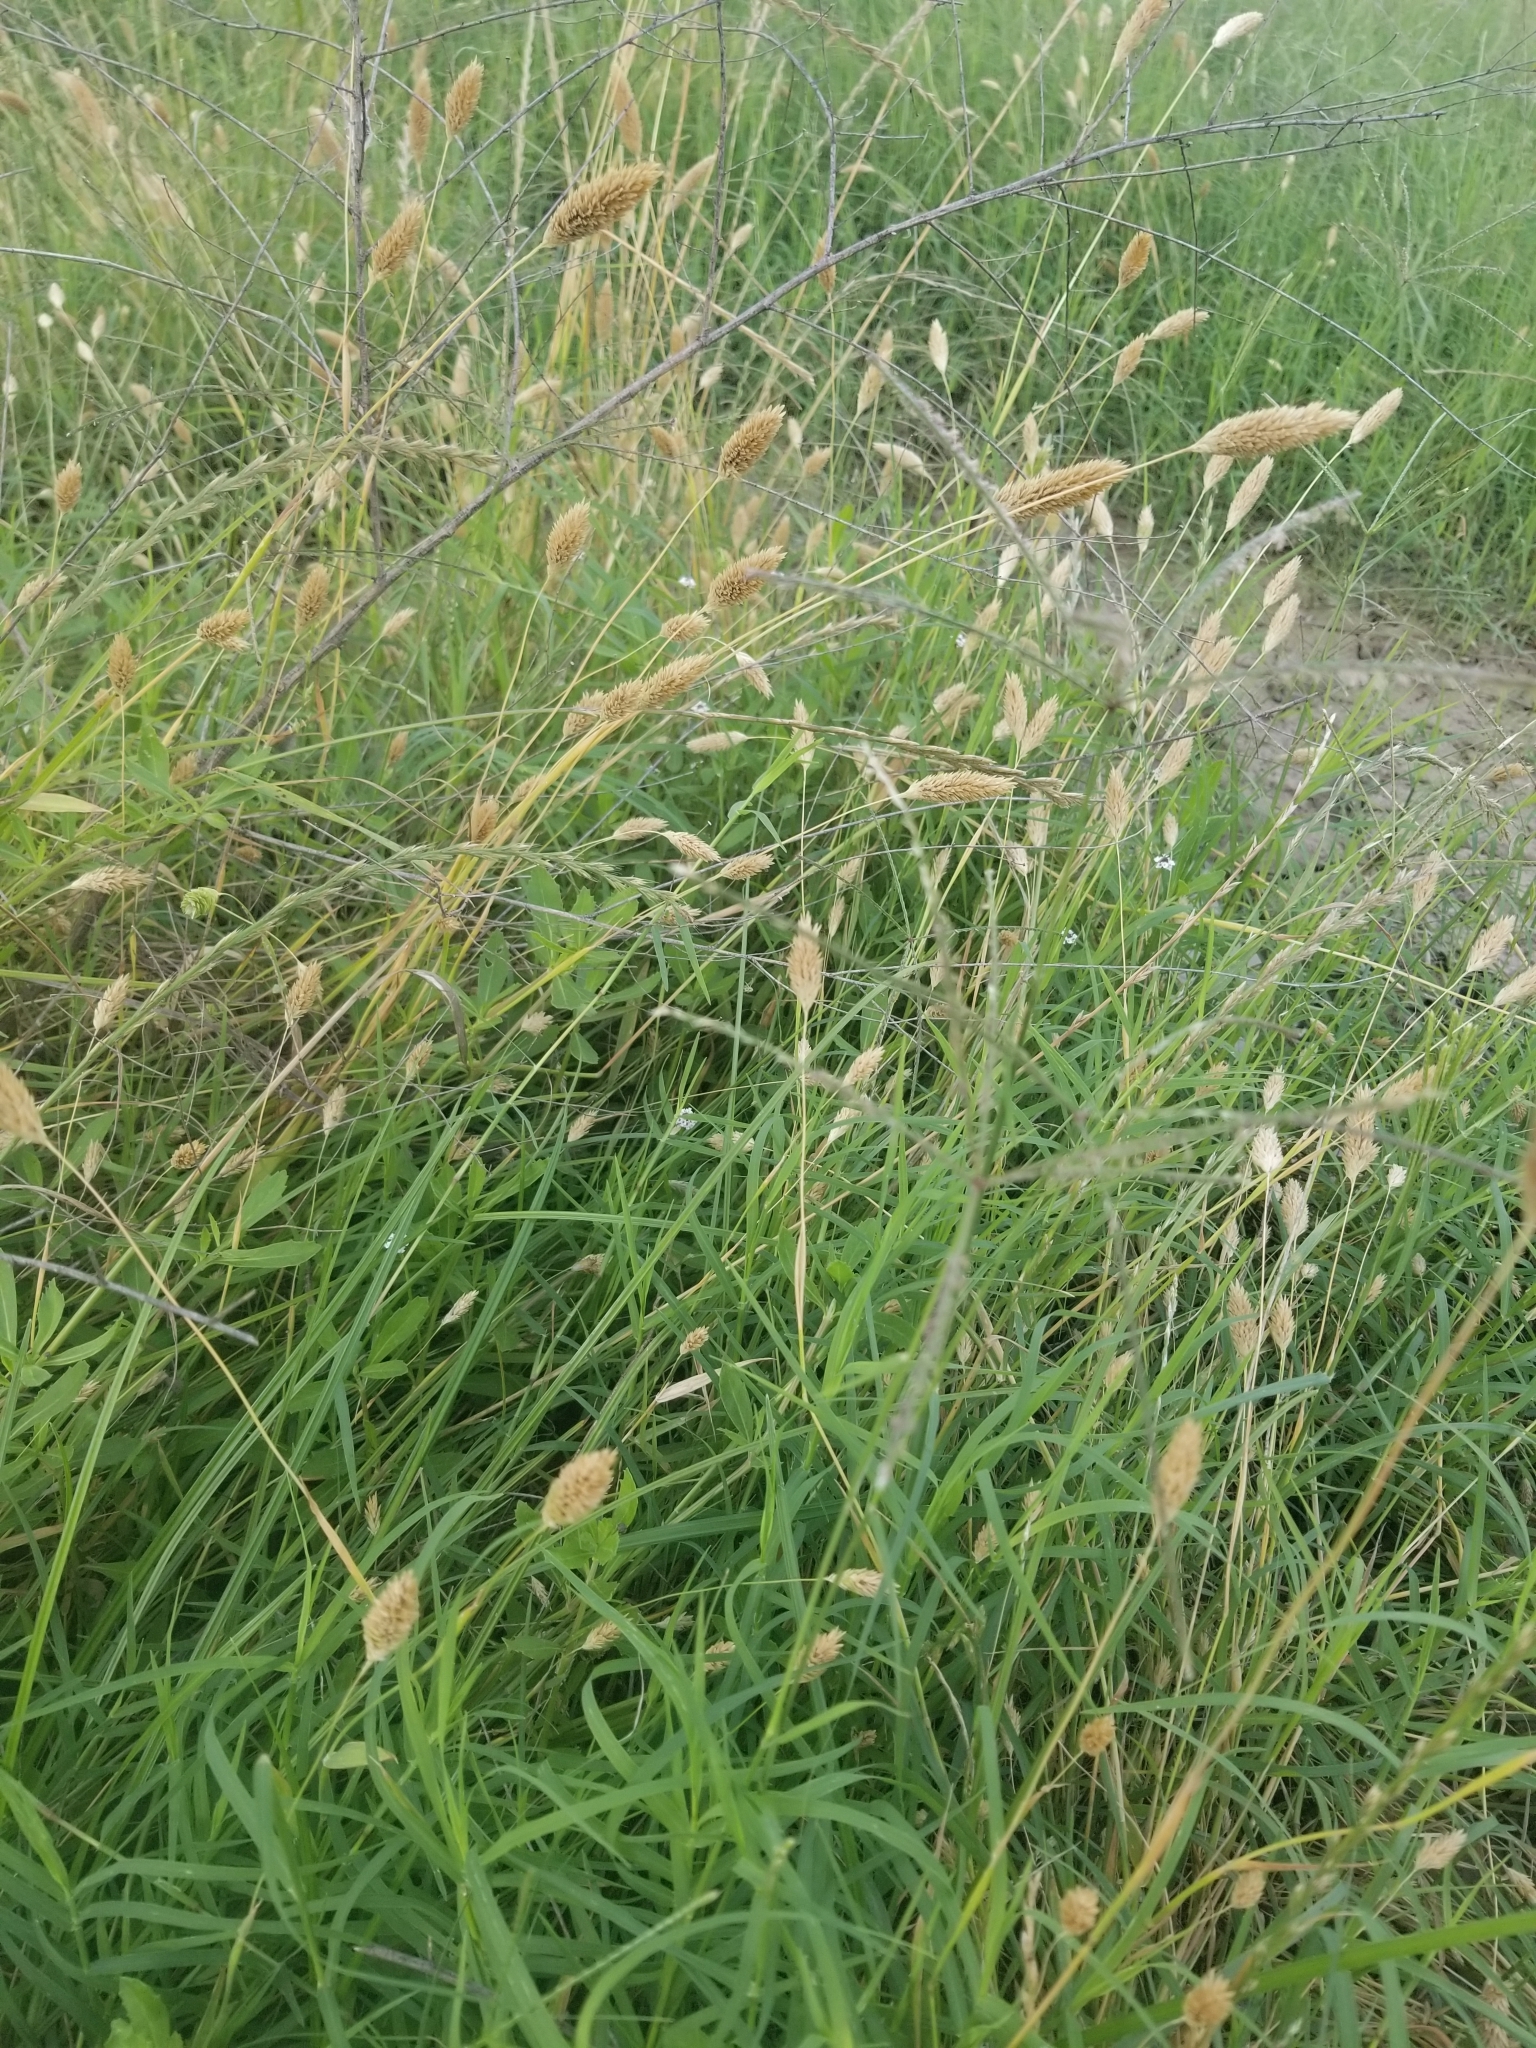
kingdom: Plantae
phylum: Tracheophyta
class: Liliopsida
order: Poales
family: Poaceae
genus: Phalaris
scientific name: Phalaris caroliniana
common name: May grass
